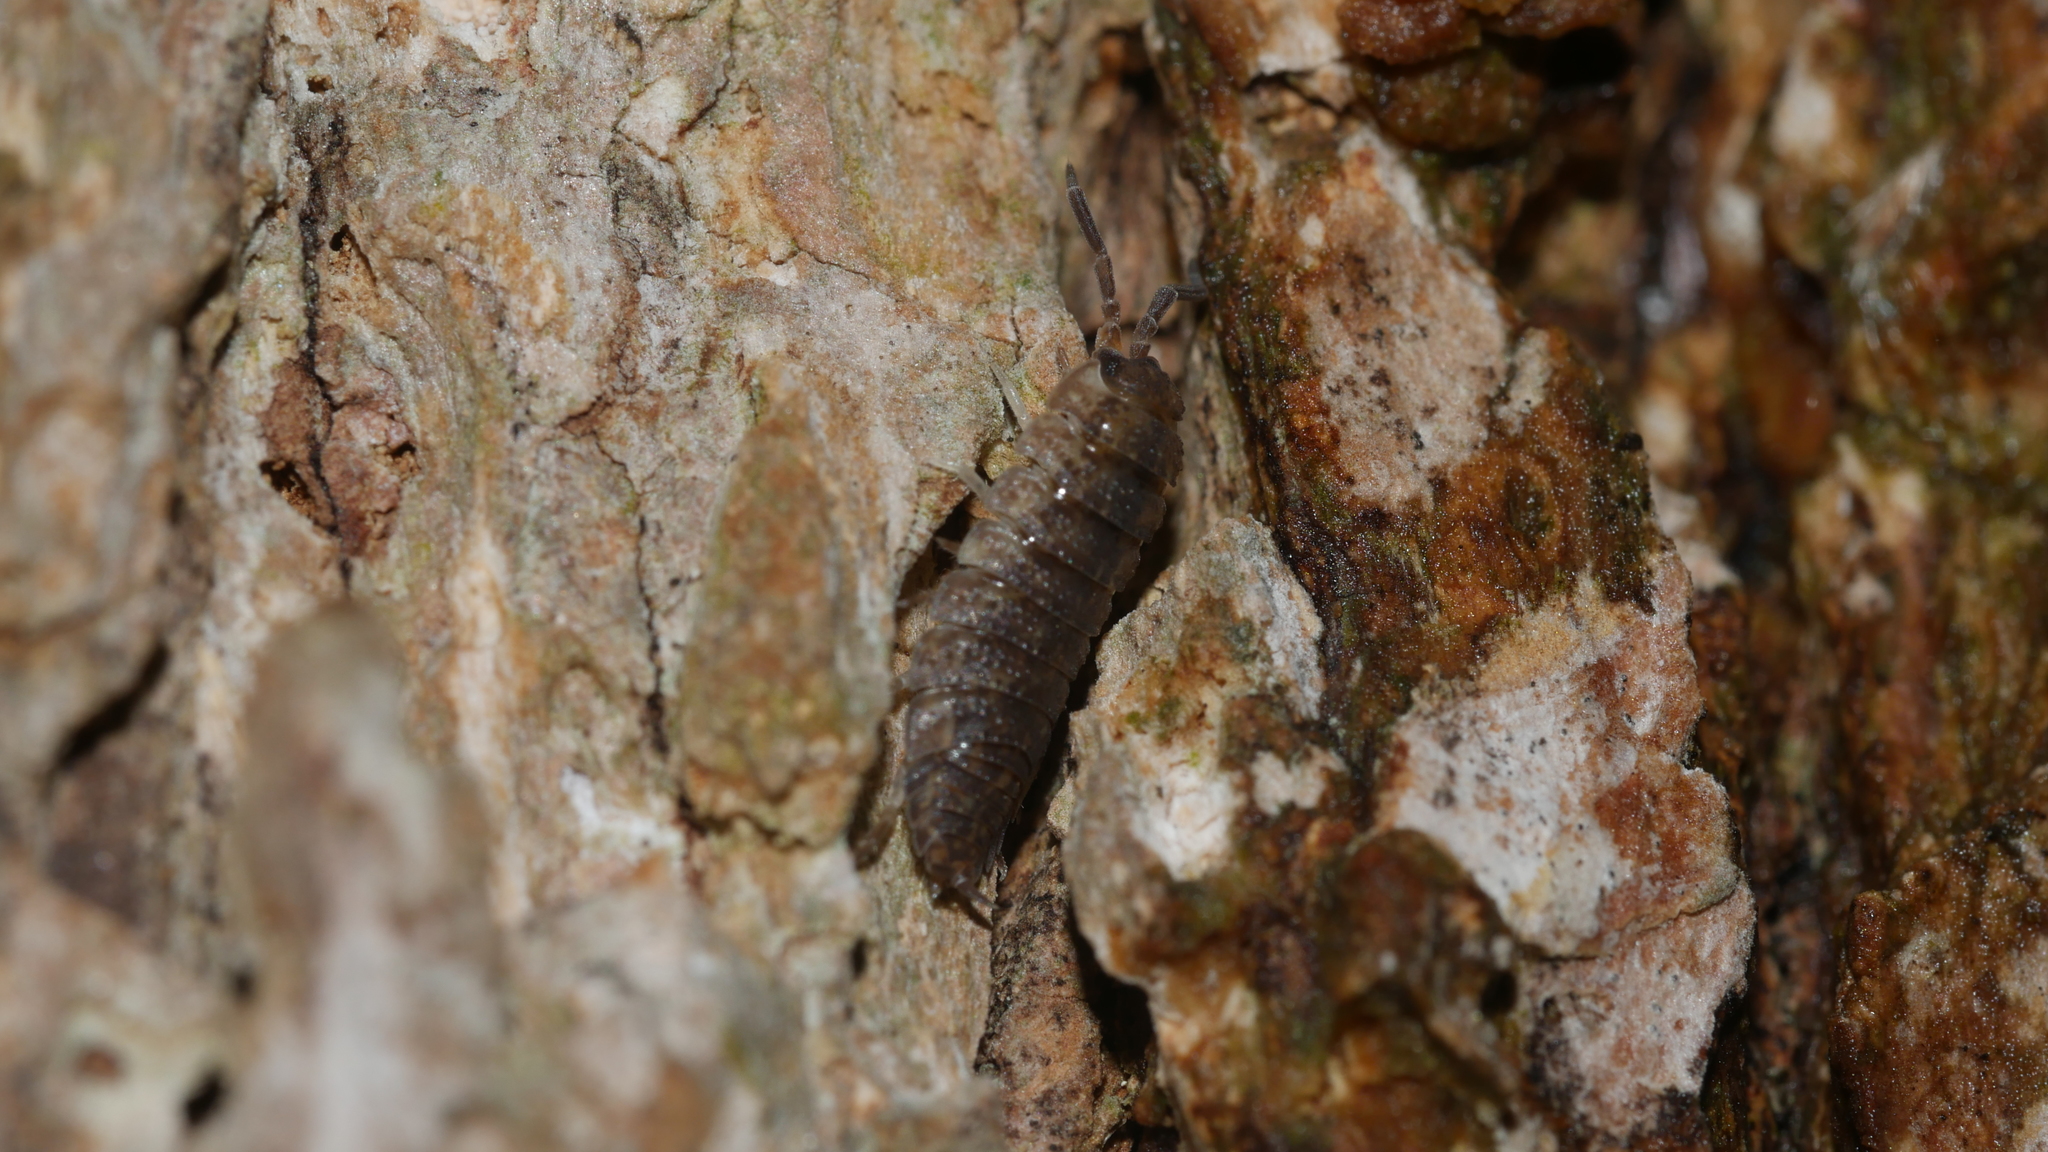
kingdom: Animalia
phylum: Arthropoda
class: Malacostraca
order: Isopoda
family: Porcellionidae
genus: Porcellio
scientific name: Porcellio scaber
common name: Common rough woodlouse
